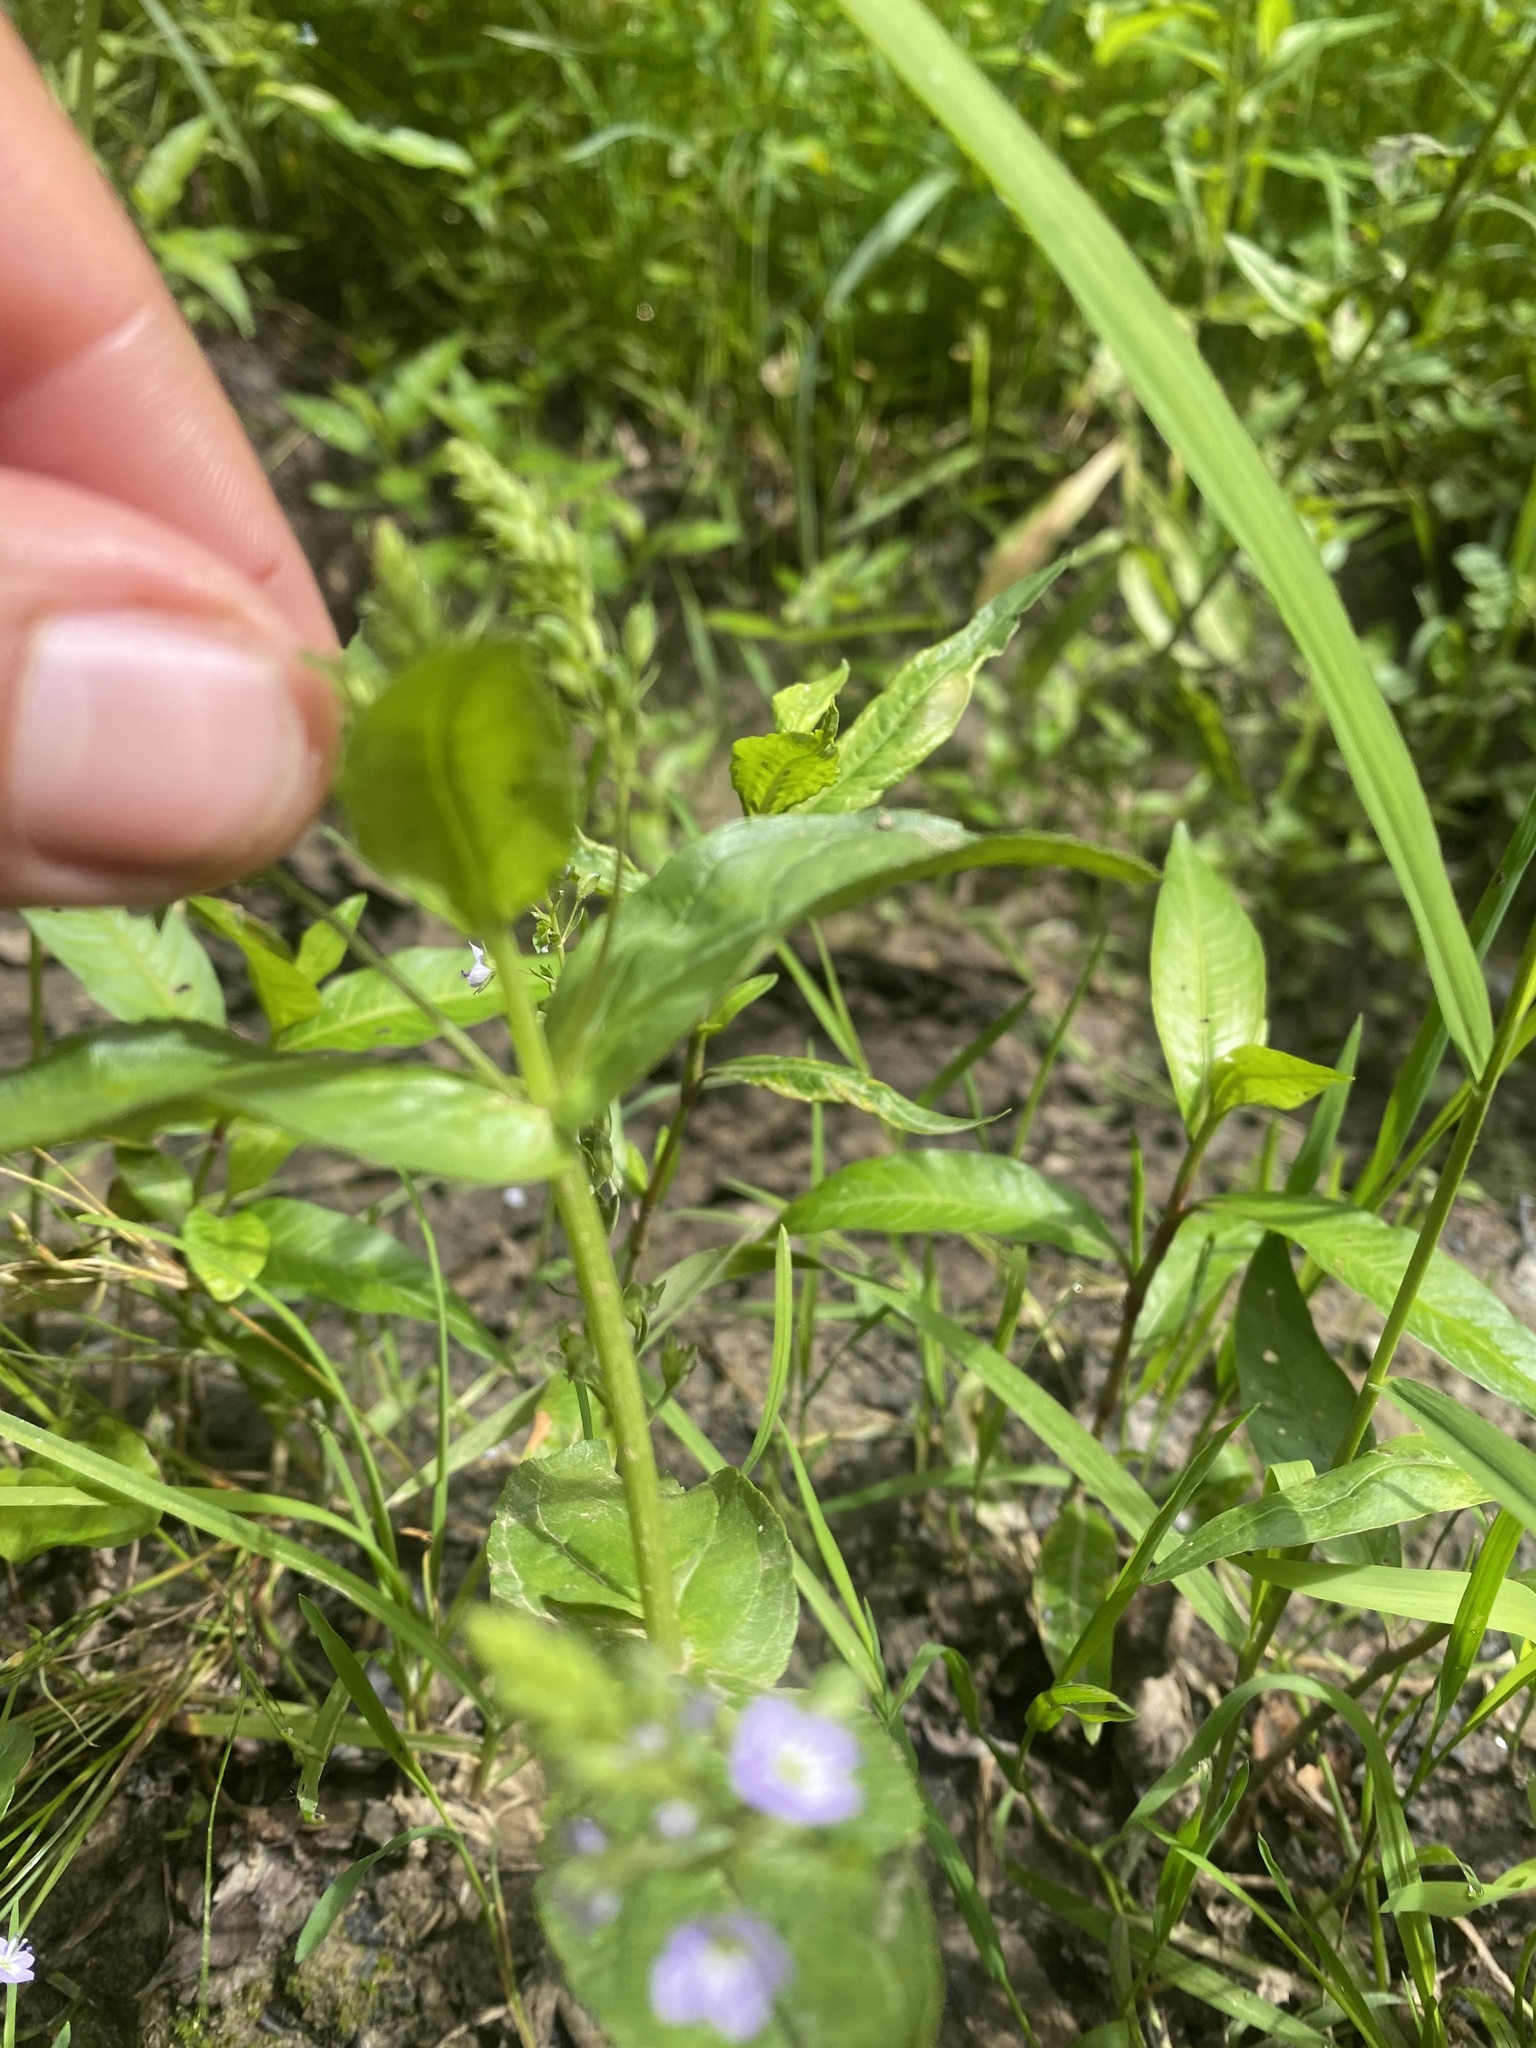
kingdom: Plantae
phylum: Tracheophyta
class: Magnoliopsida
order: Lamiales
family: Plantaginaceae
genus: Veronica
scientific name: Veronica anagallis-aquatica
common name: Water speedwell
